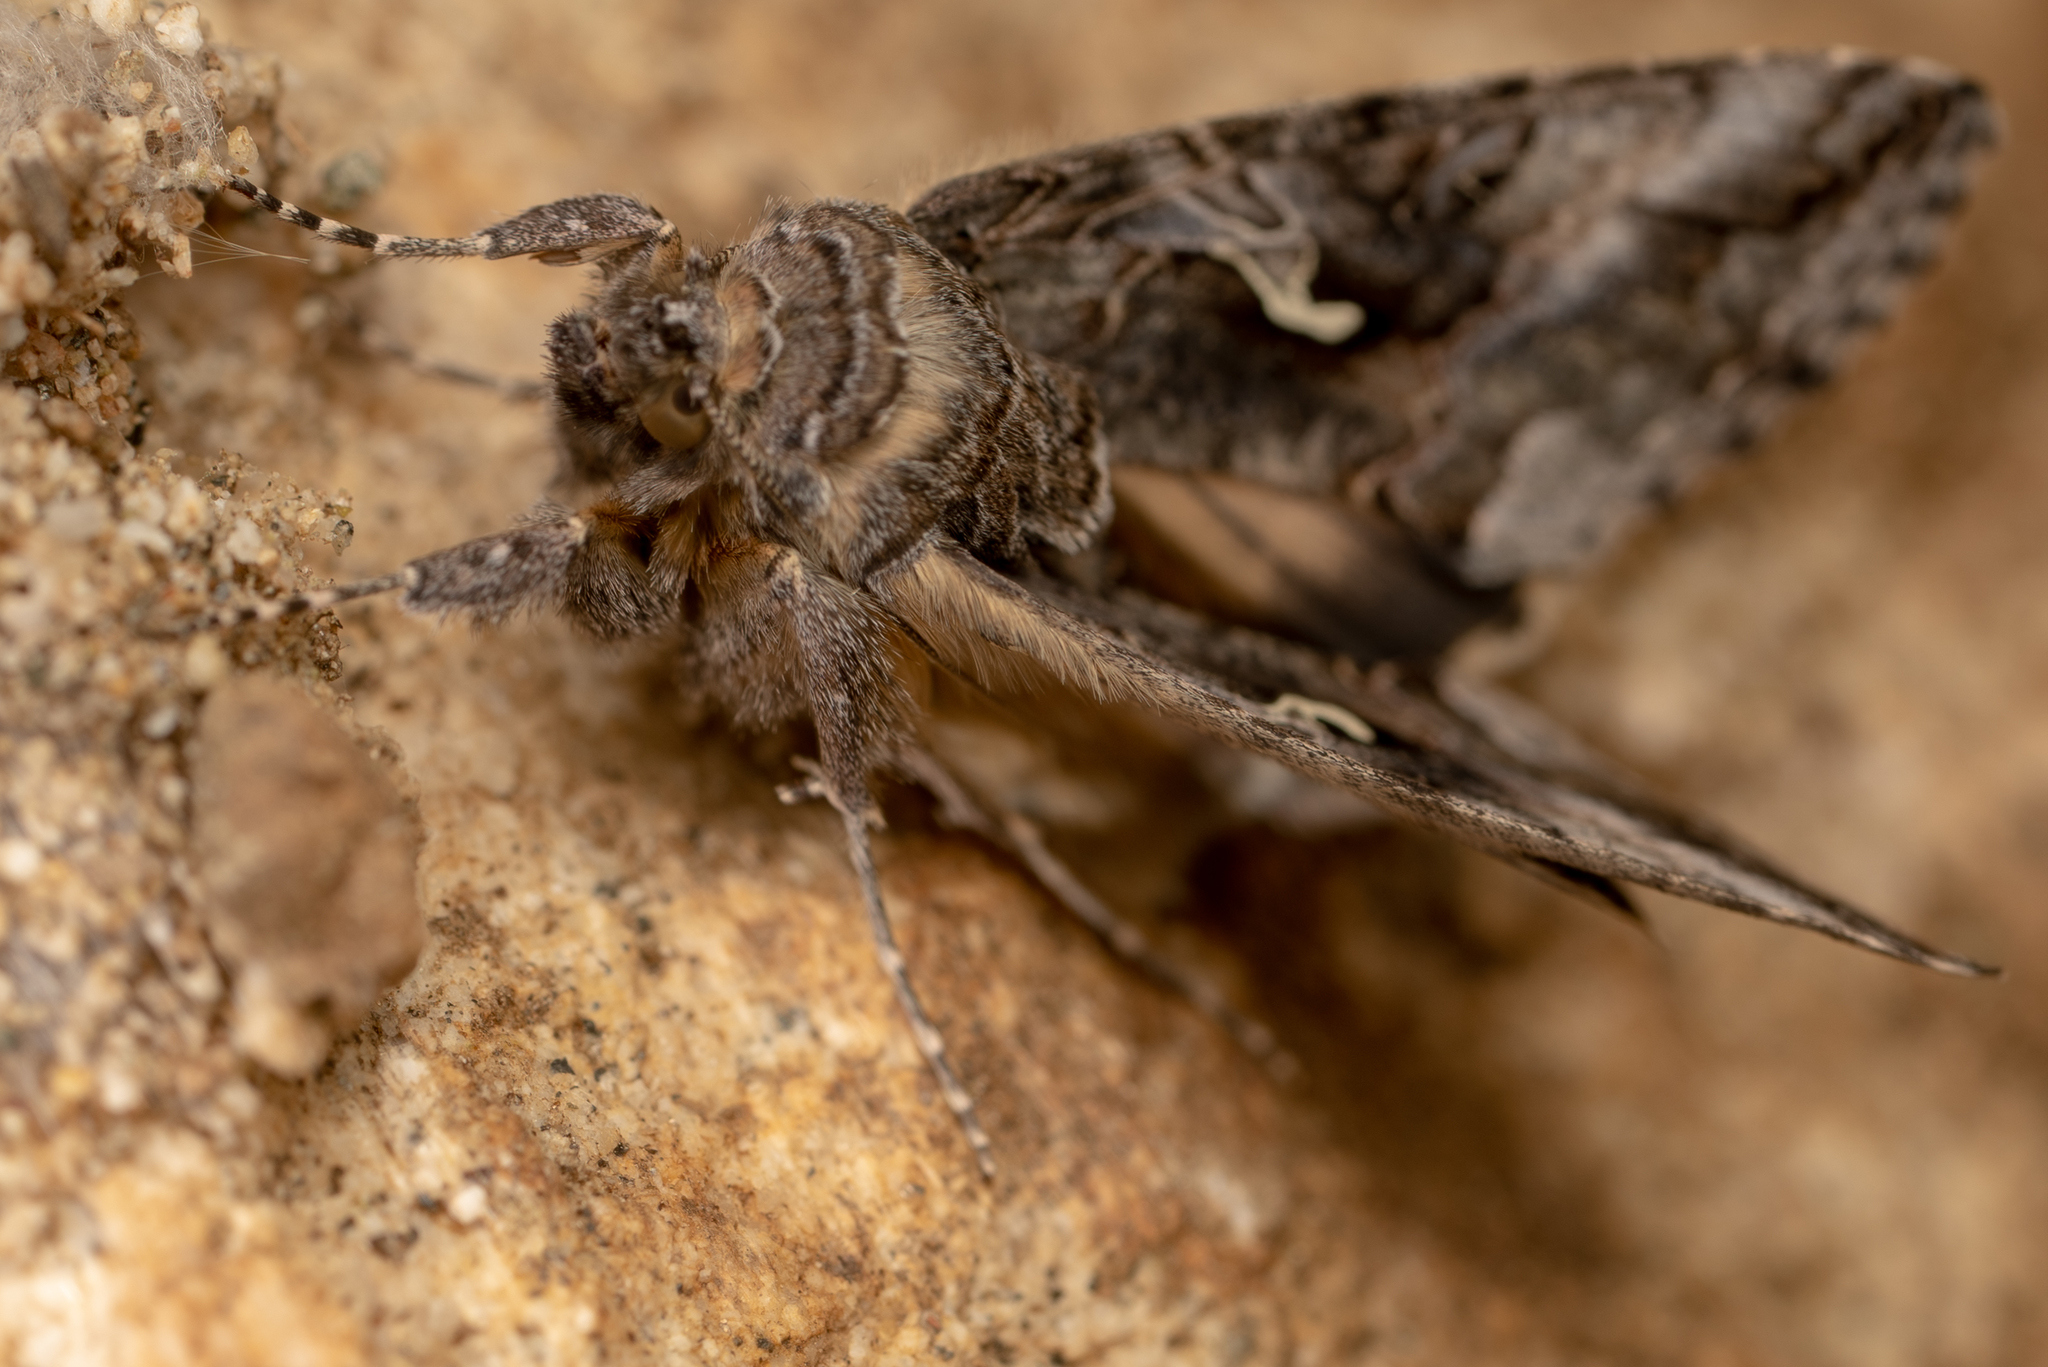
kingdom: Animalia
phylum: Arthropoda
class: Insecta
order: Lepidoptera
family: Noctuidae
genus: Autographa
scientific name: Autographa californica
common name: Alfalfa looper
